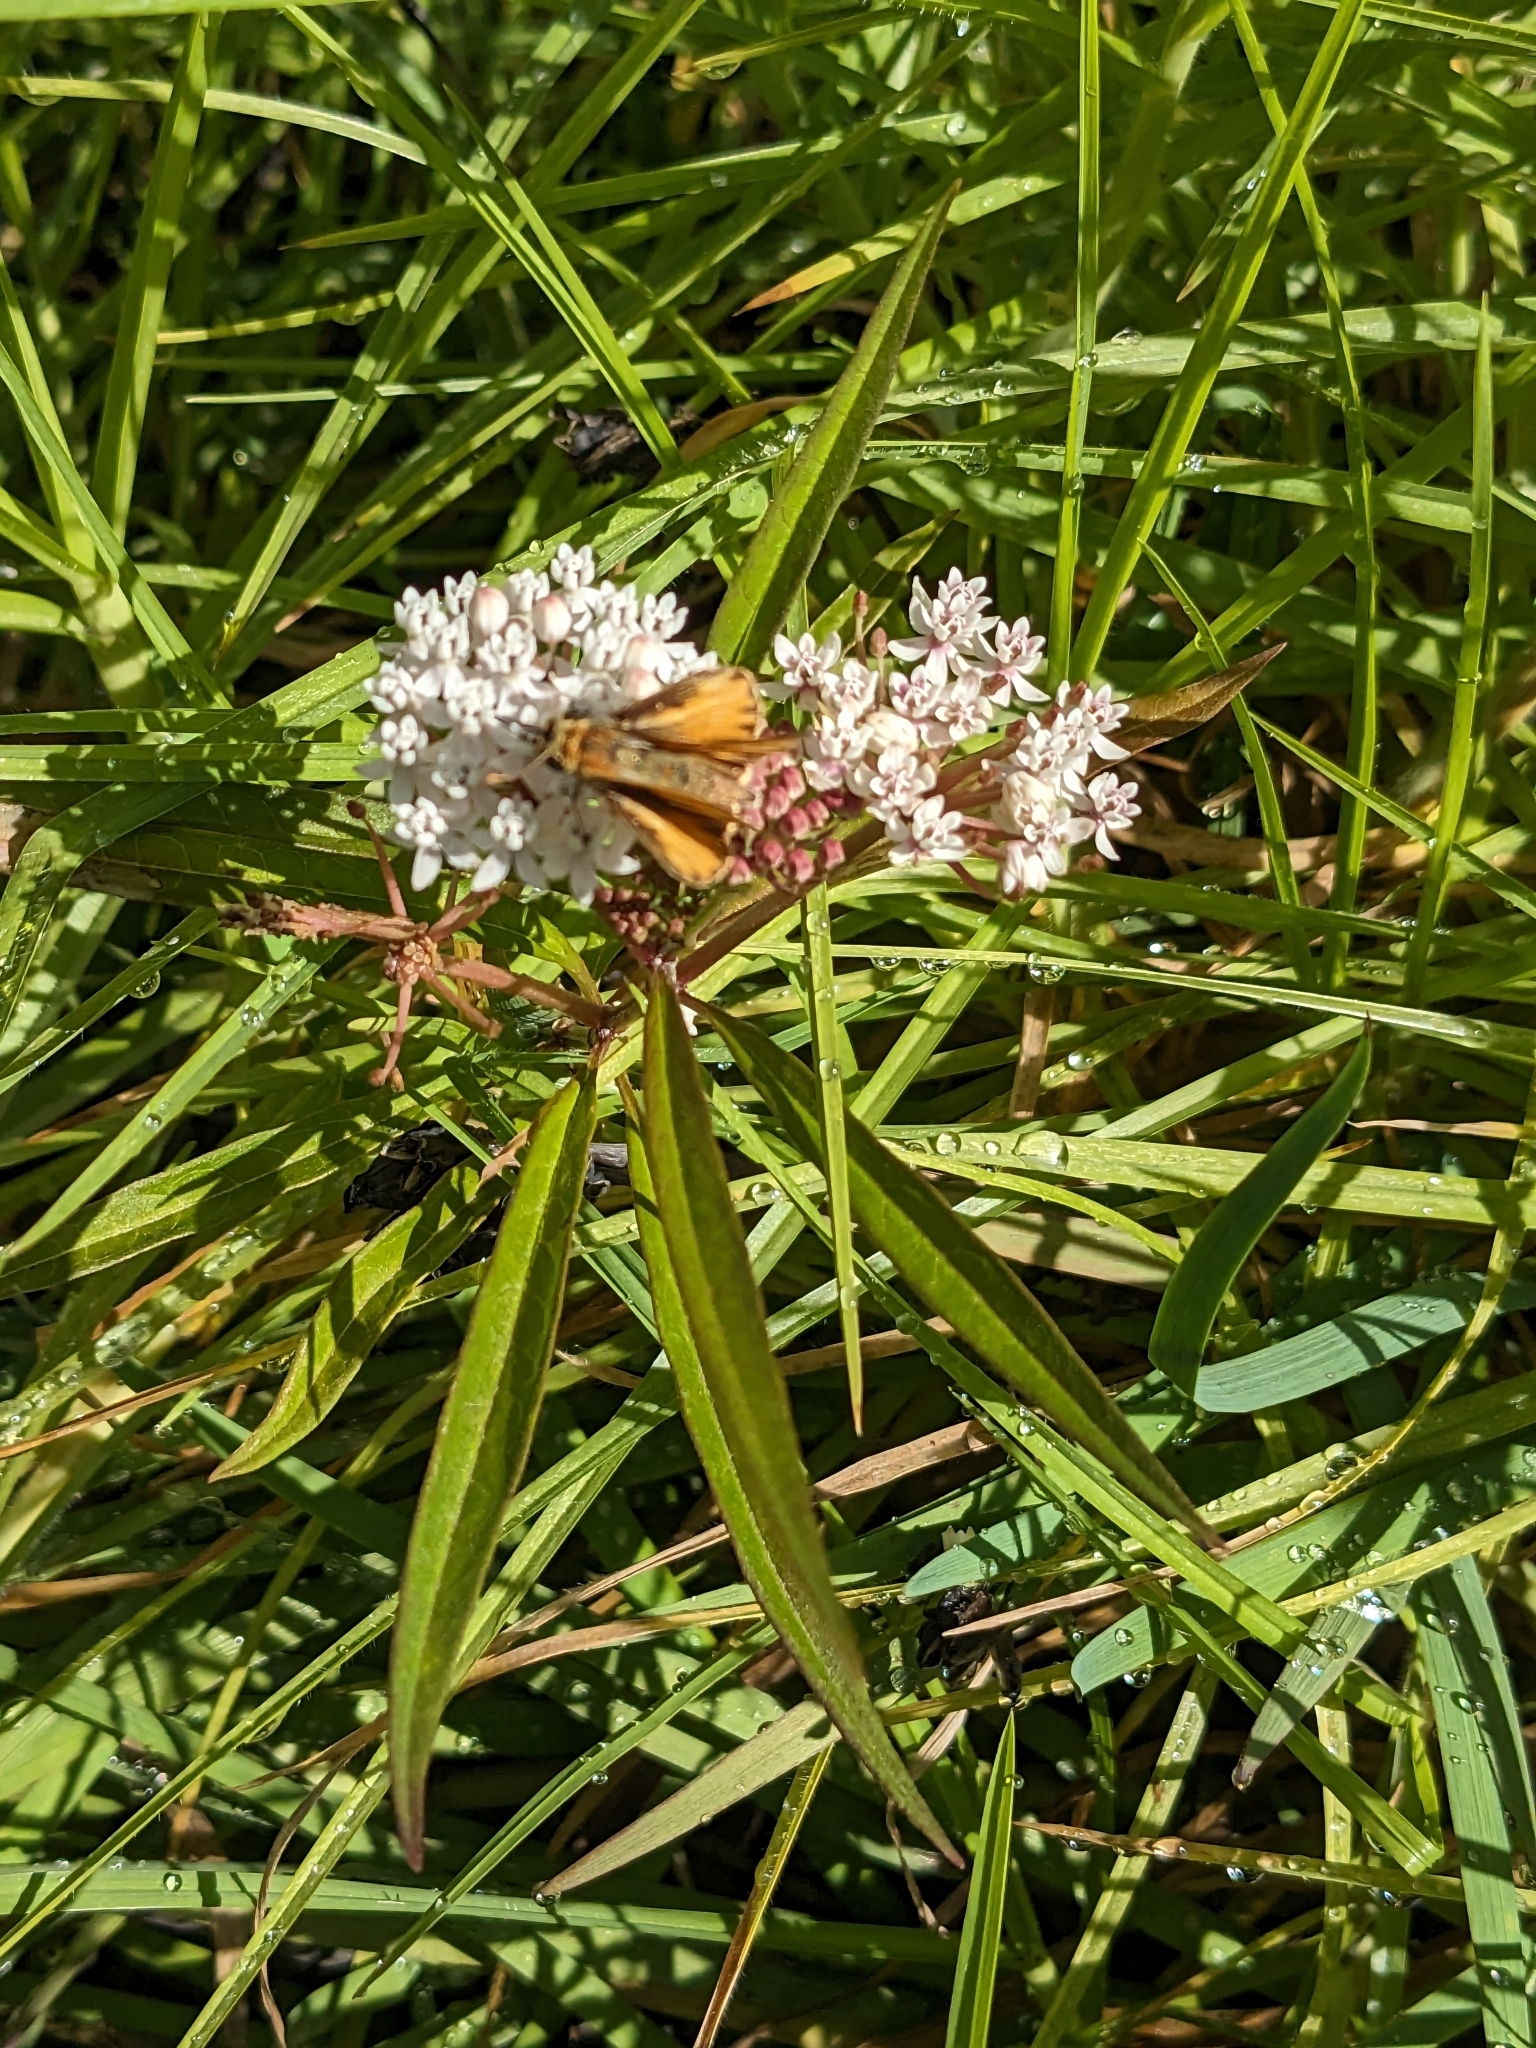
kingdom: Animalia
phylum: Arthropoda
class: Insecta
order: Lepidoptera
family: Hesperiidae
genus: Hylephila
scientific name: Hylephila phyleus
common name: Fiery skipper
